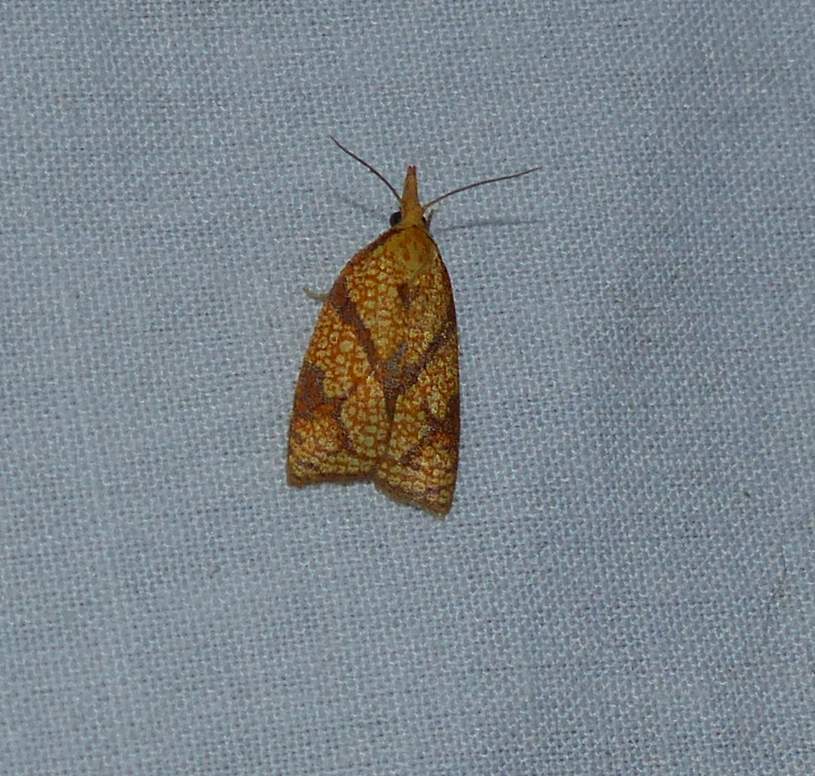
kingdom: Animalia
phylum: Arthropoda
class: Insecta
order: Lepidoptera
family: Tortricidae
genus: Cenopis
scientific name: Cenopis reticulatana
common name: Reticulated fruitworm moth
